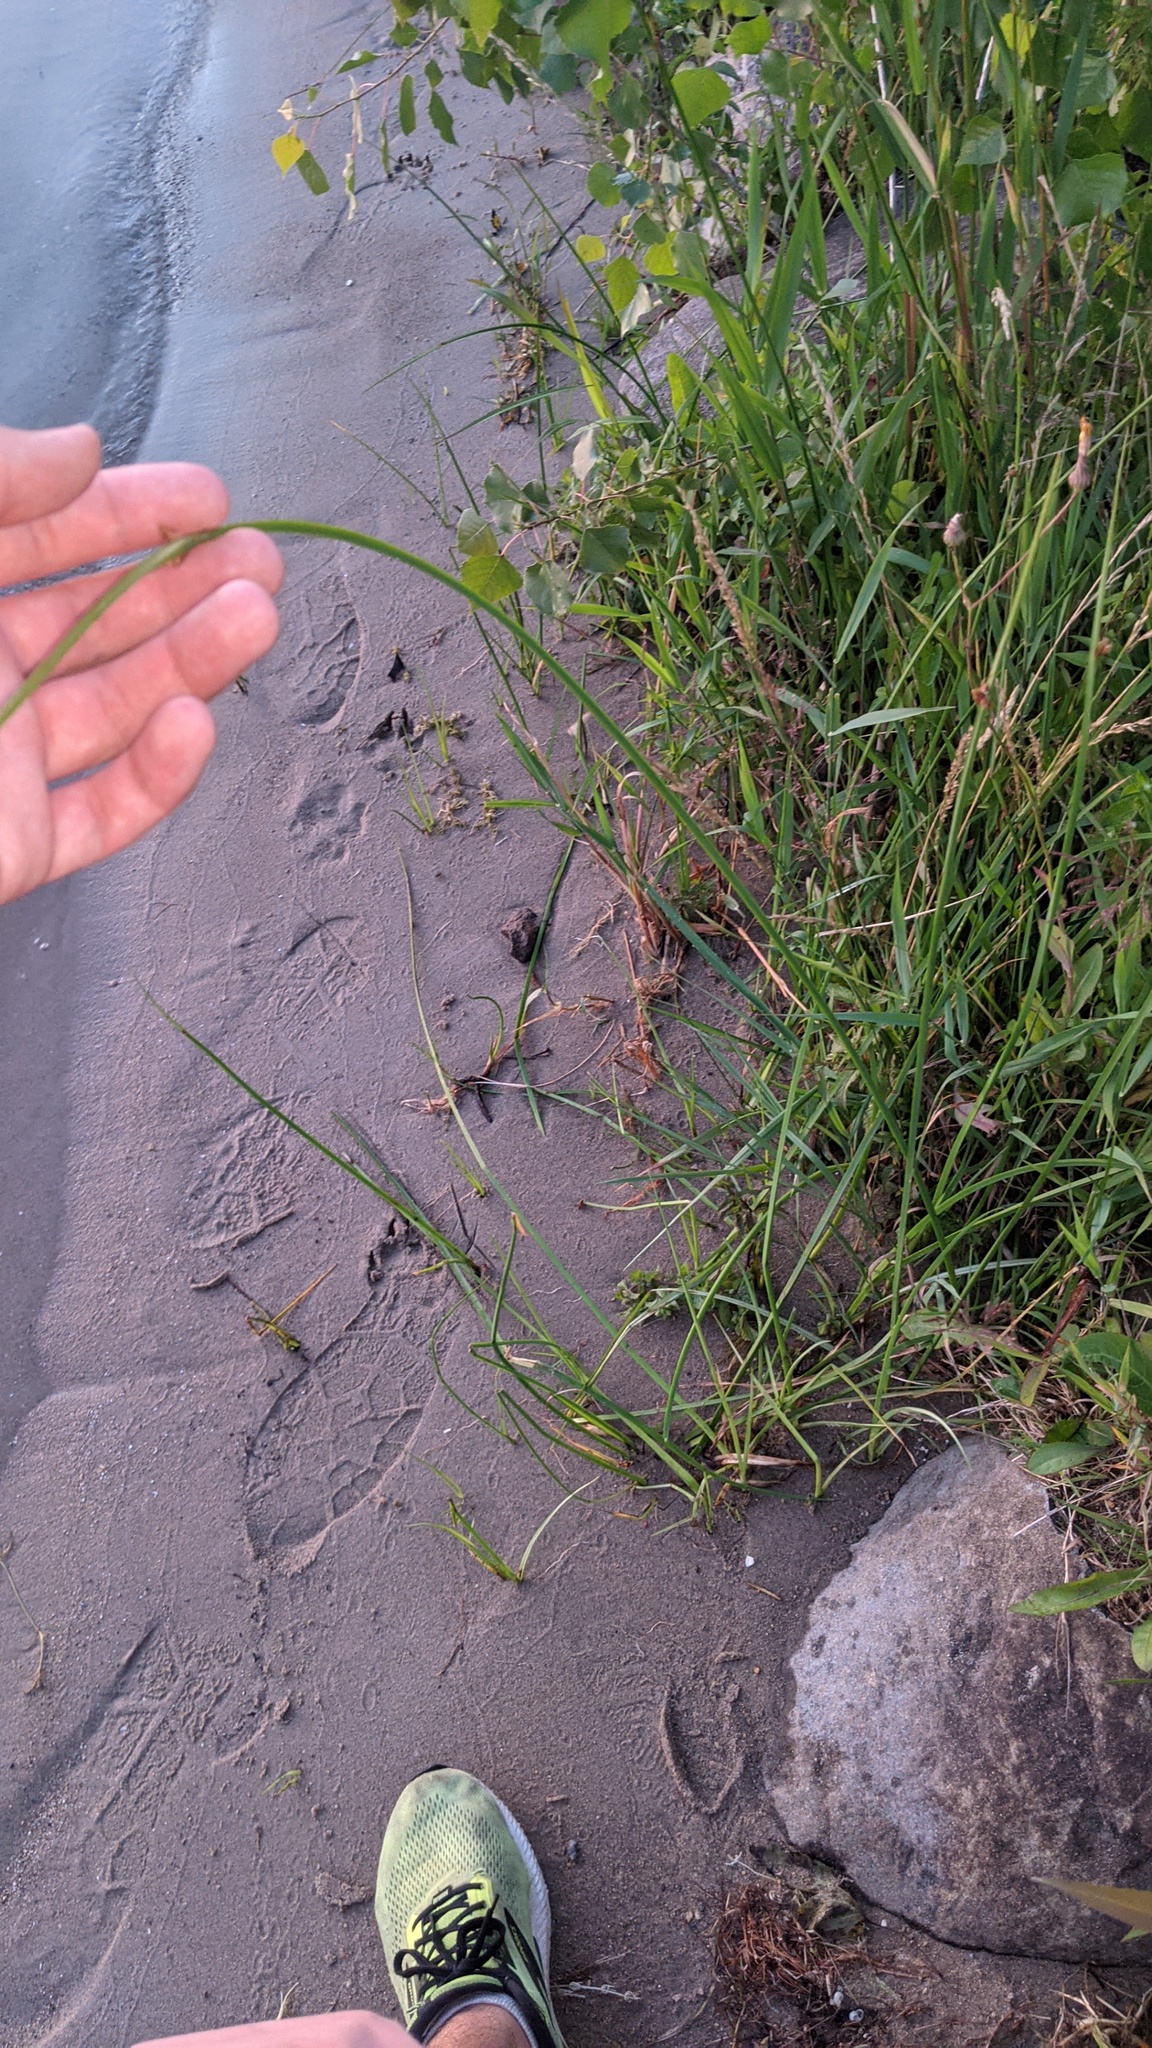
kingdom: Plantae
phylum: Tracheophyta
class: Liliopsida
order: Poales
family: Cyperaceae
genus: Schoenoplectus
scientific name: Schoenoplectus pungens
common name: Sharp club-rush
